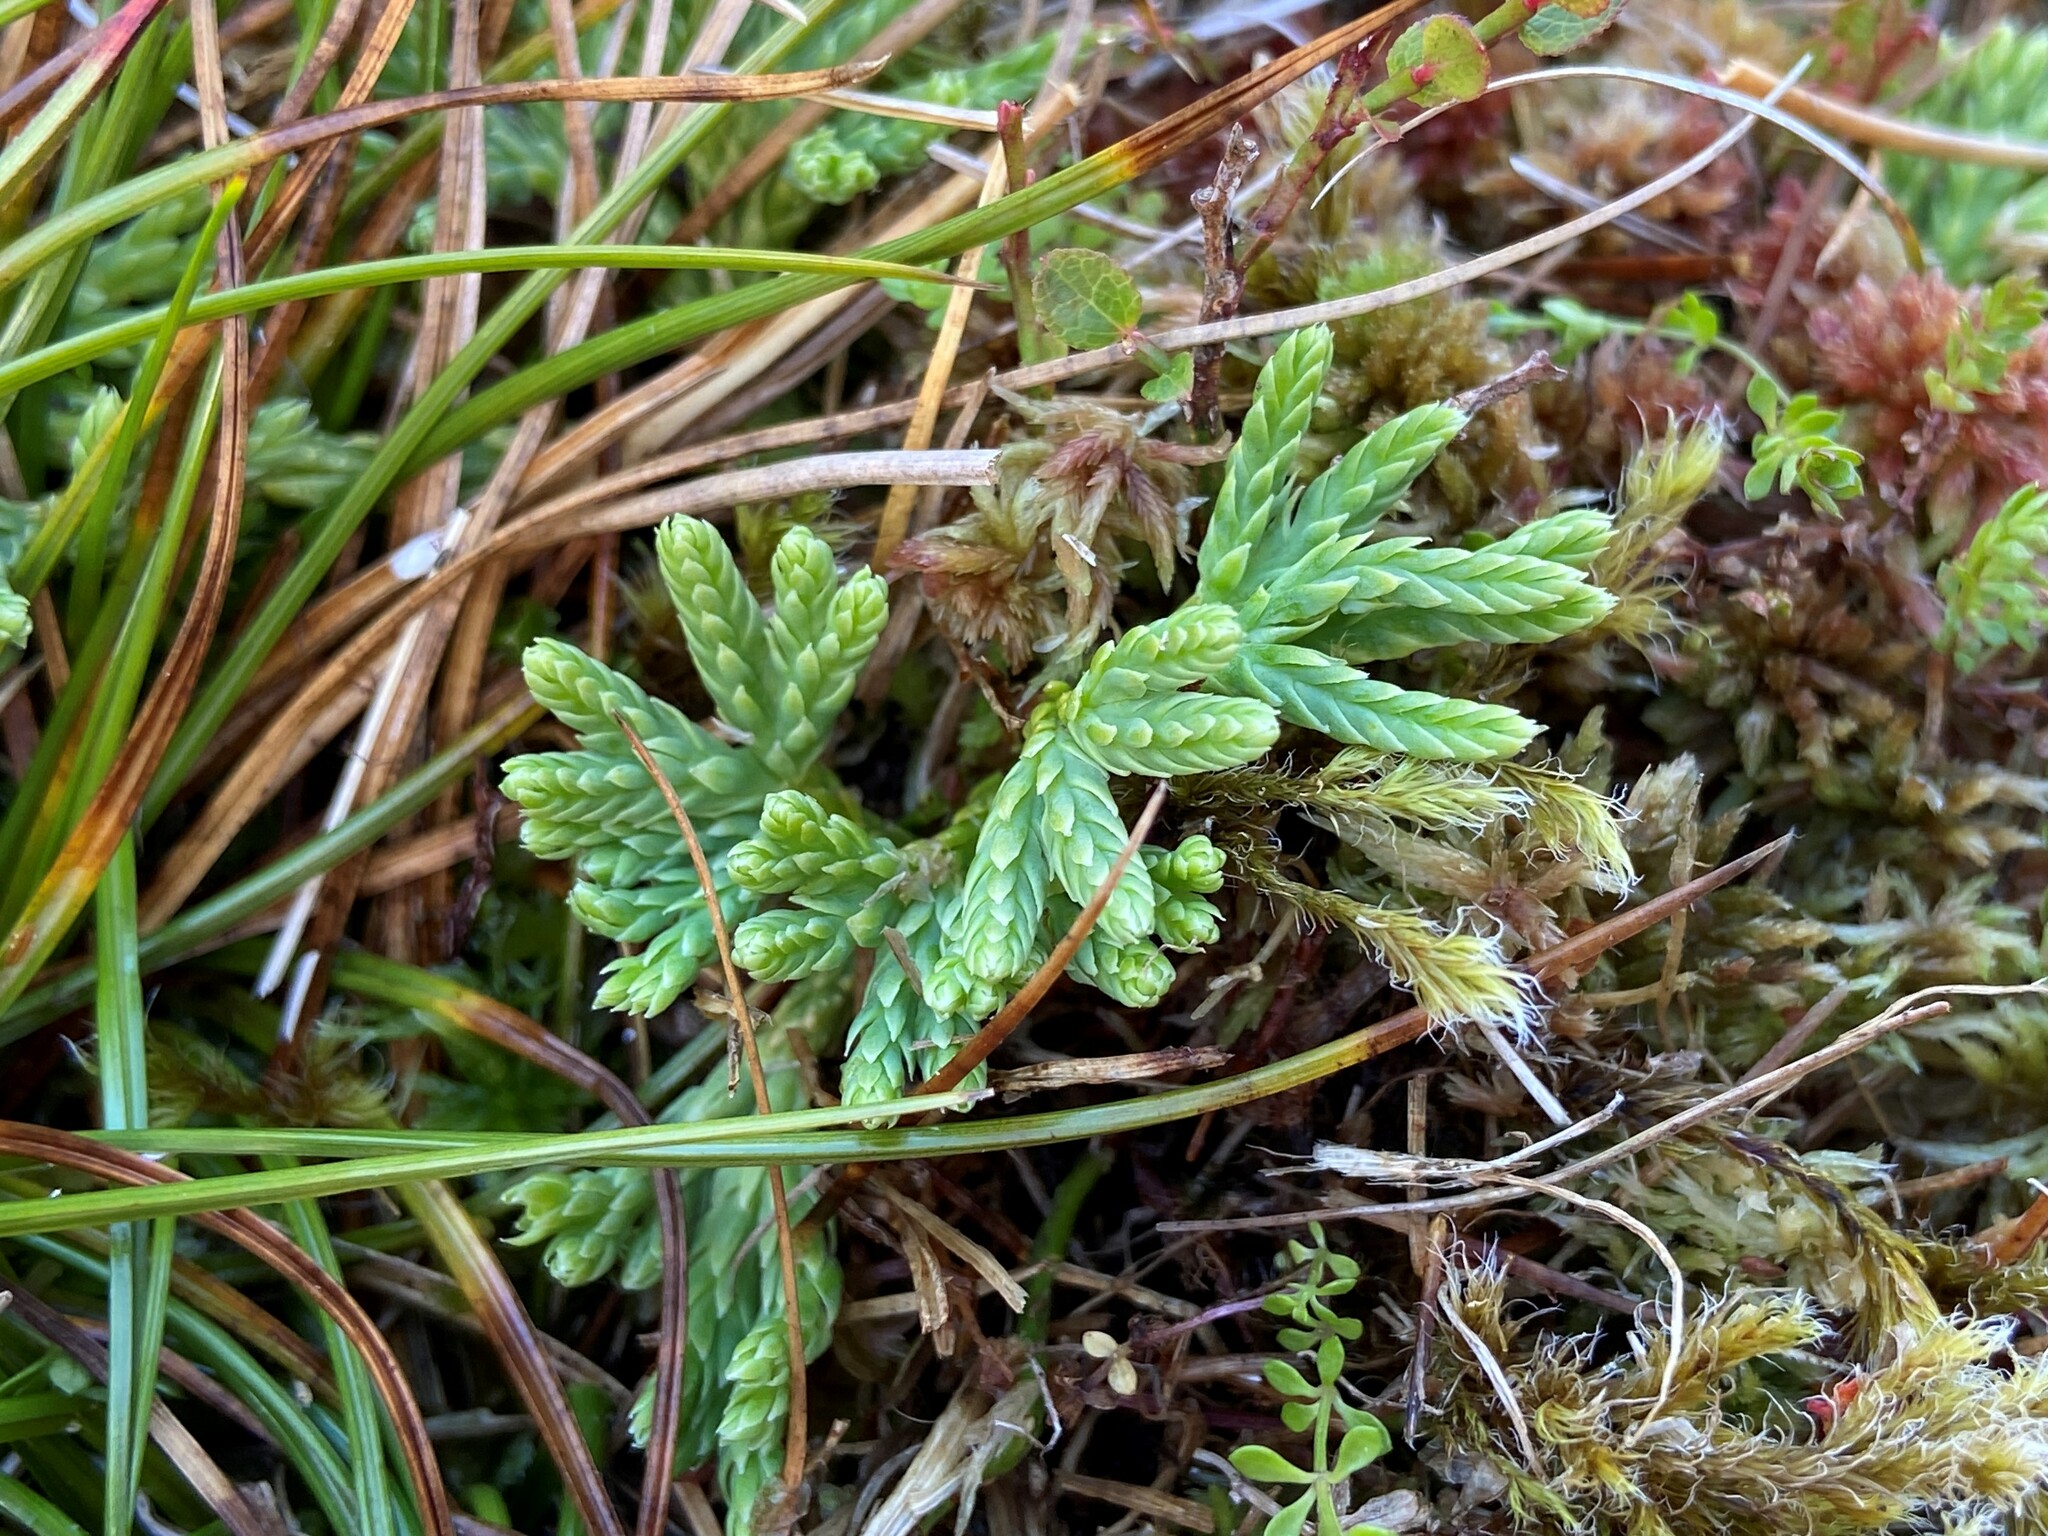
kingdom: Plantae
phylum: Tracheophyta
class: Lycopodiopsida
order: Lycopodiales
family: Lycopodiaceae
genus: Diphasiastrum
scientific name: Diphasiastrum alpinum
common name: Alpine clubmoss
